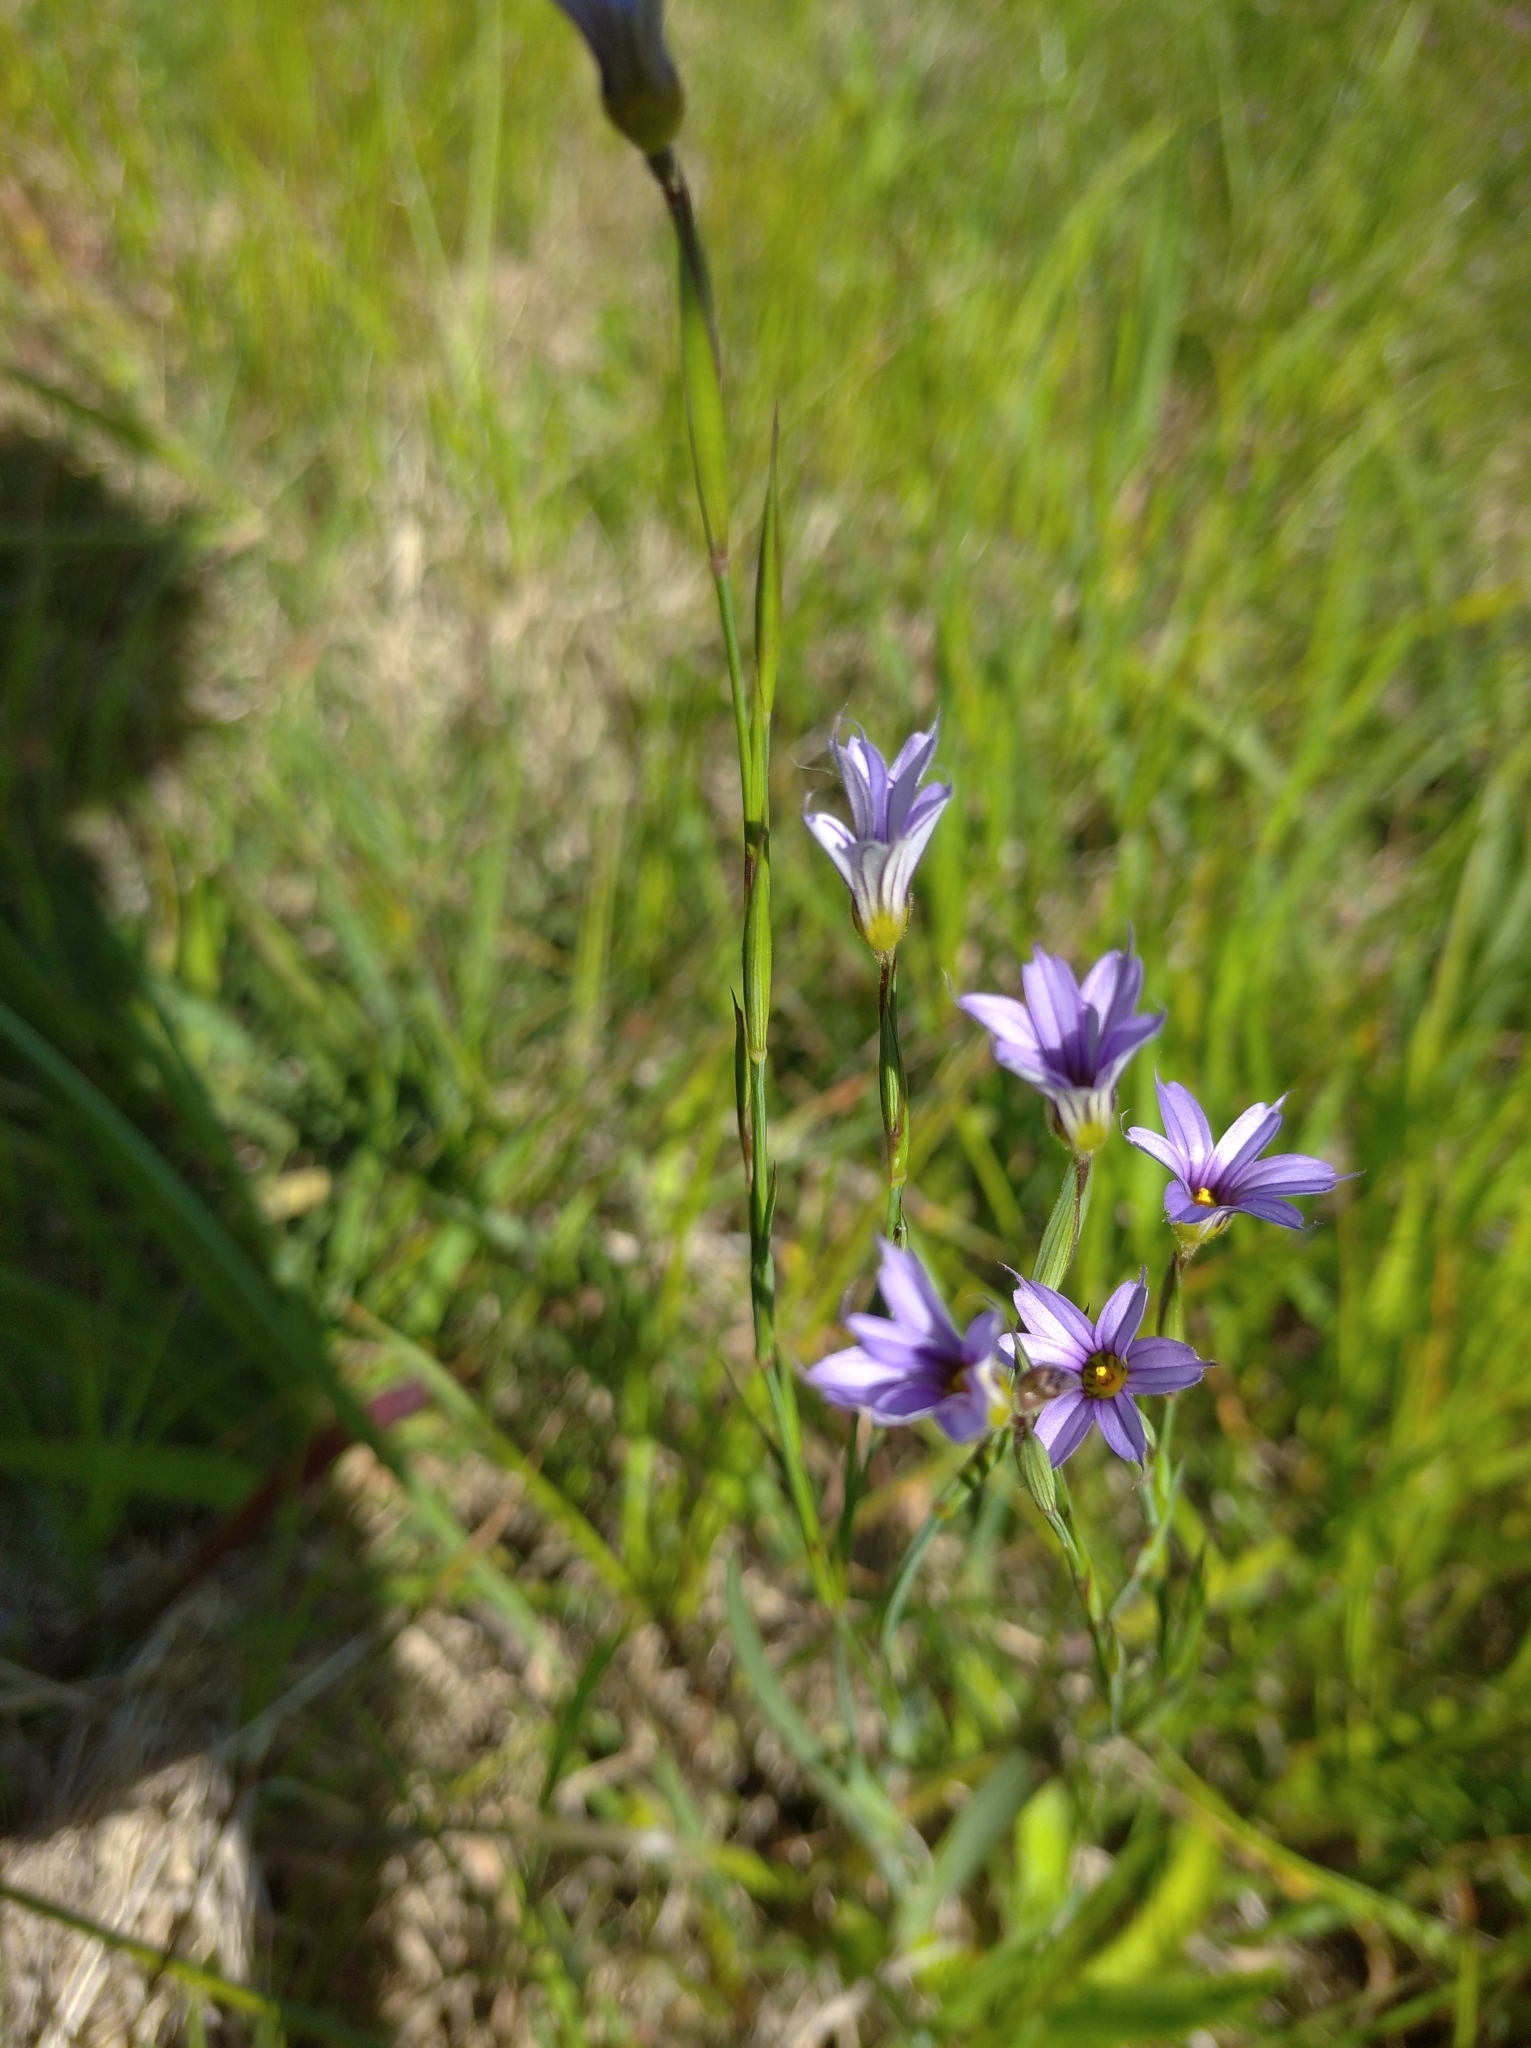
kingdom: Plantae
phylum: Tracheophyta
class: Liliopsida
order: Asparagales
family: Iridaceae
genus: Sisyrinchium
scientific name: Sisyrinchium platense
